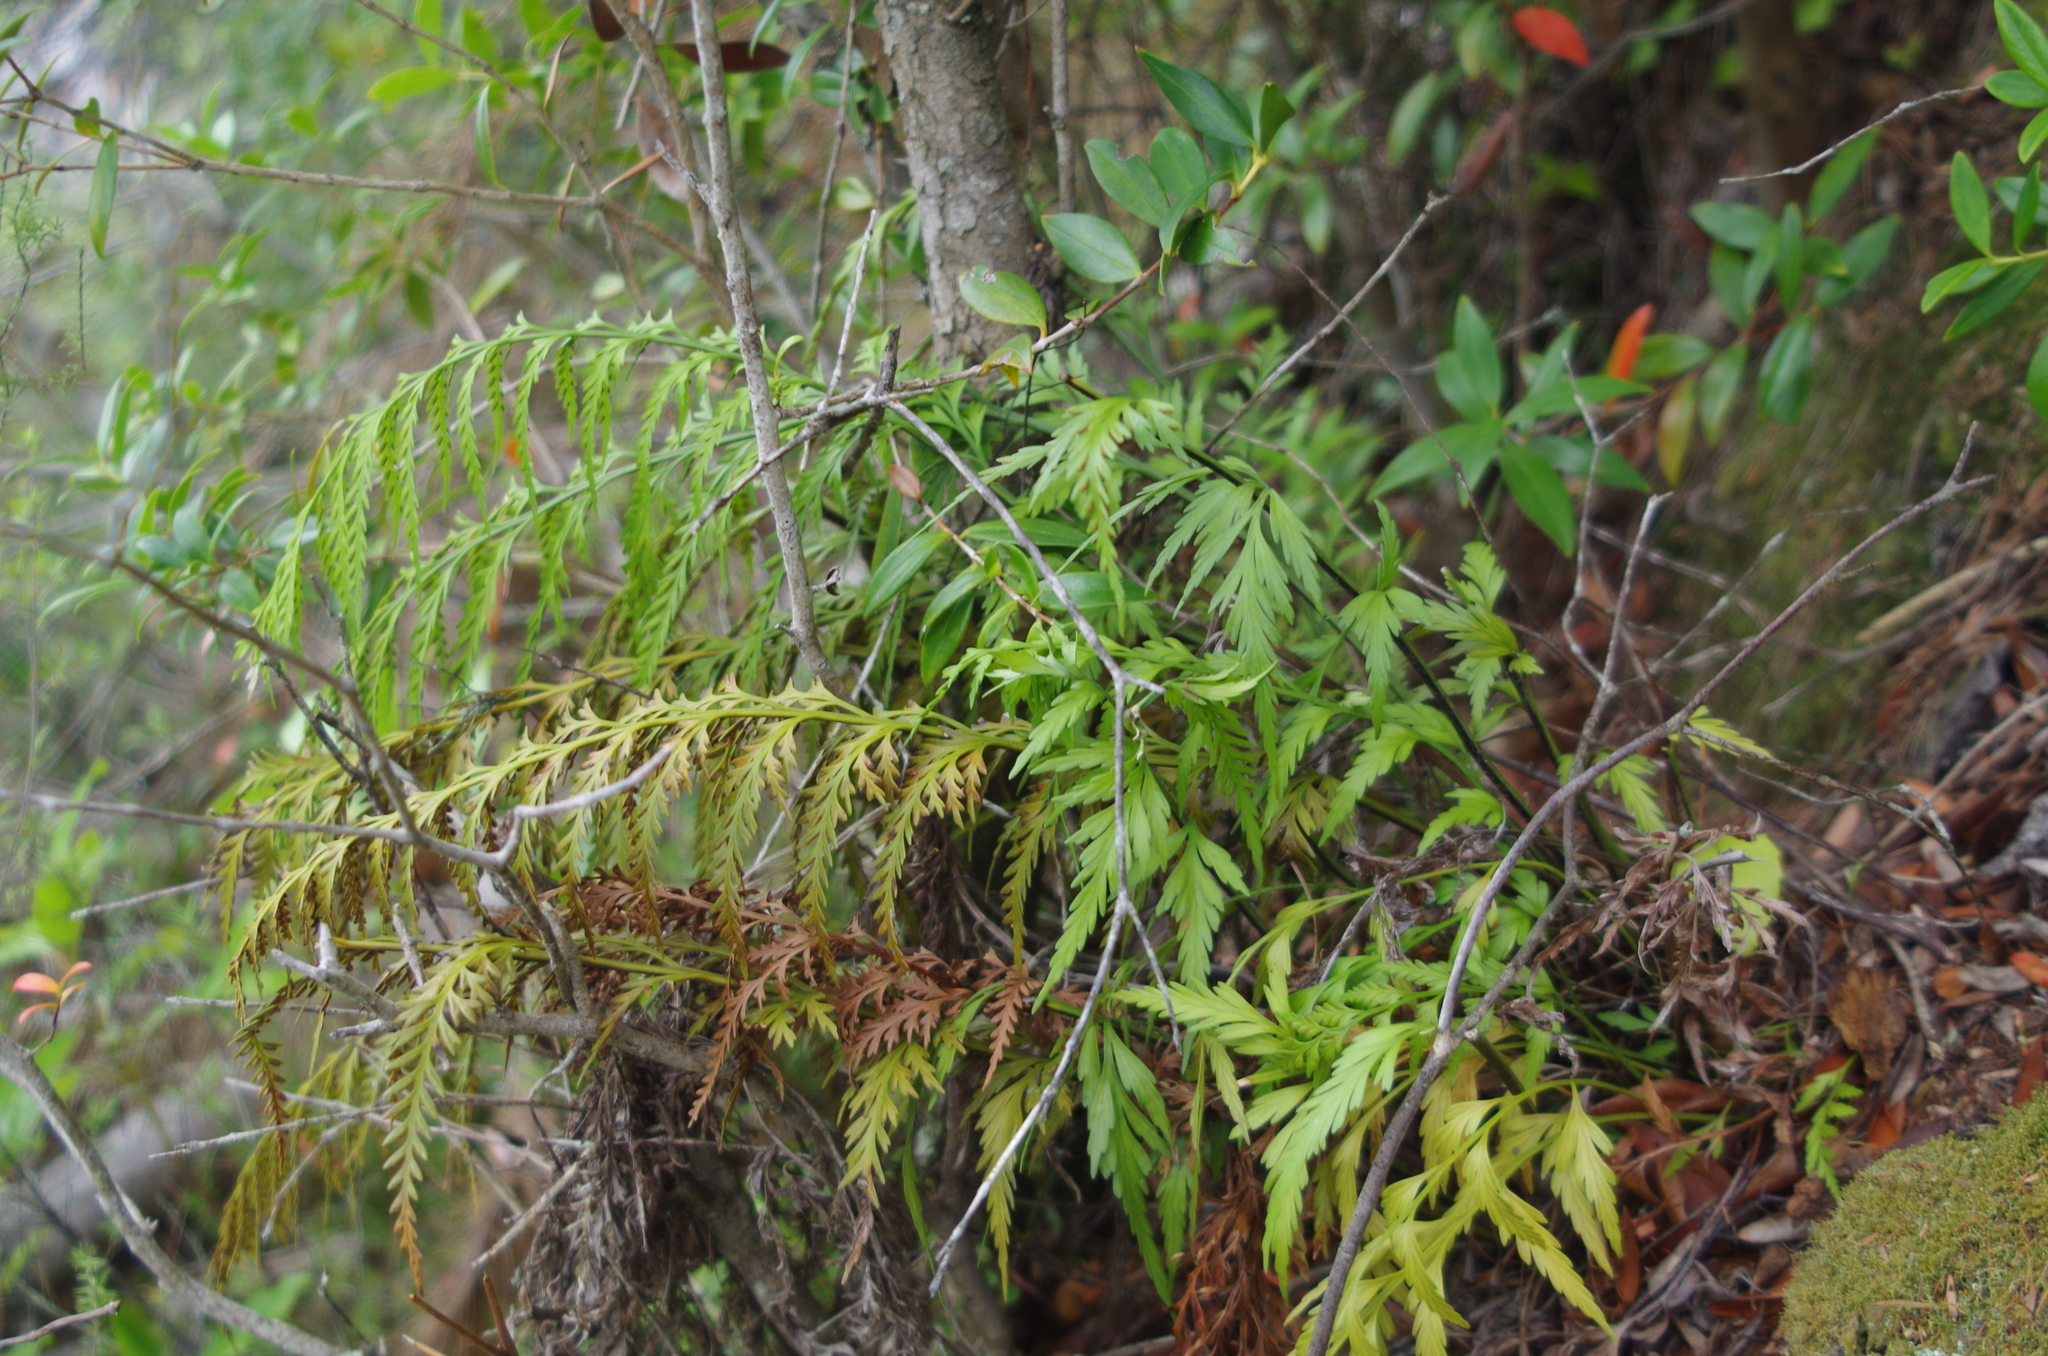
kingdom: Plantae
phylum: Tracheophyta
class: Polypodiopsida
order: Polypodiales
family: Aspleniaceae
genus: Asplenium
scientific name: Asplenium appendiculatum
